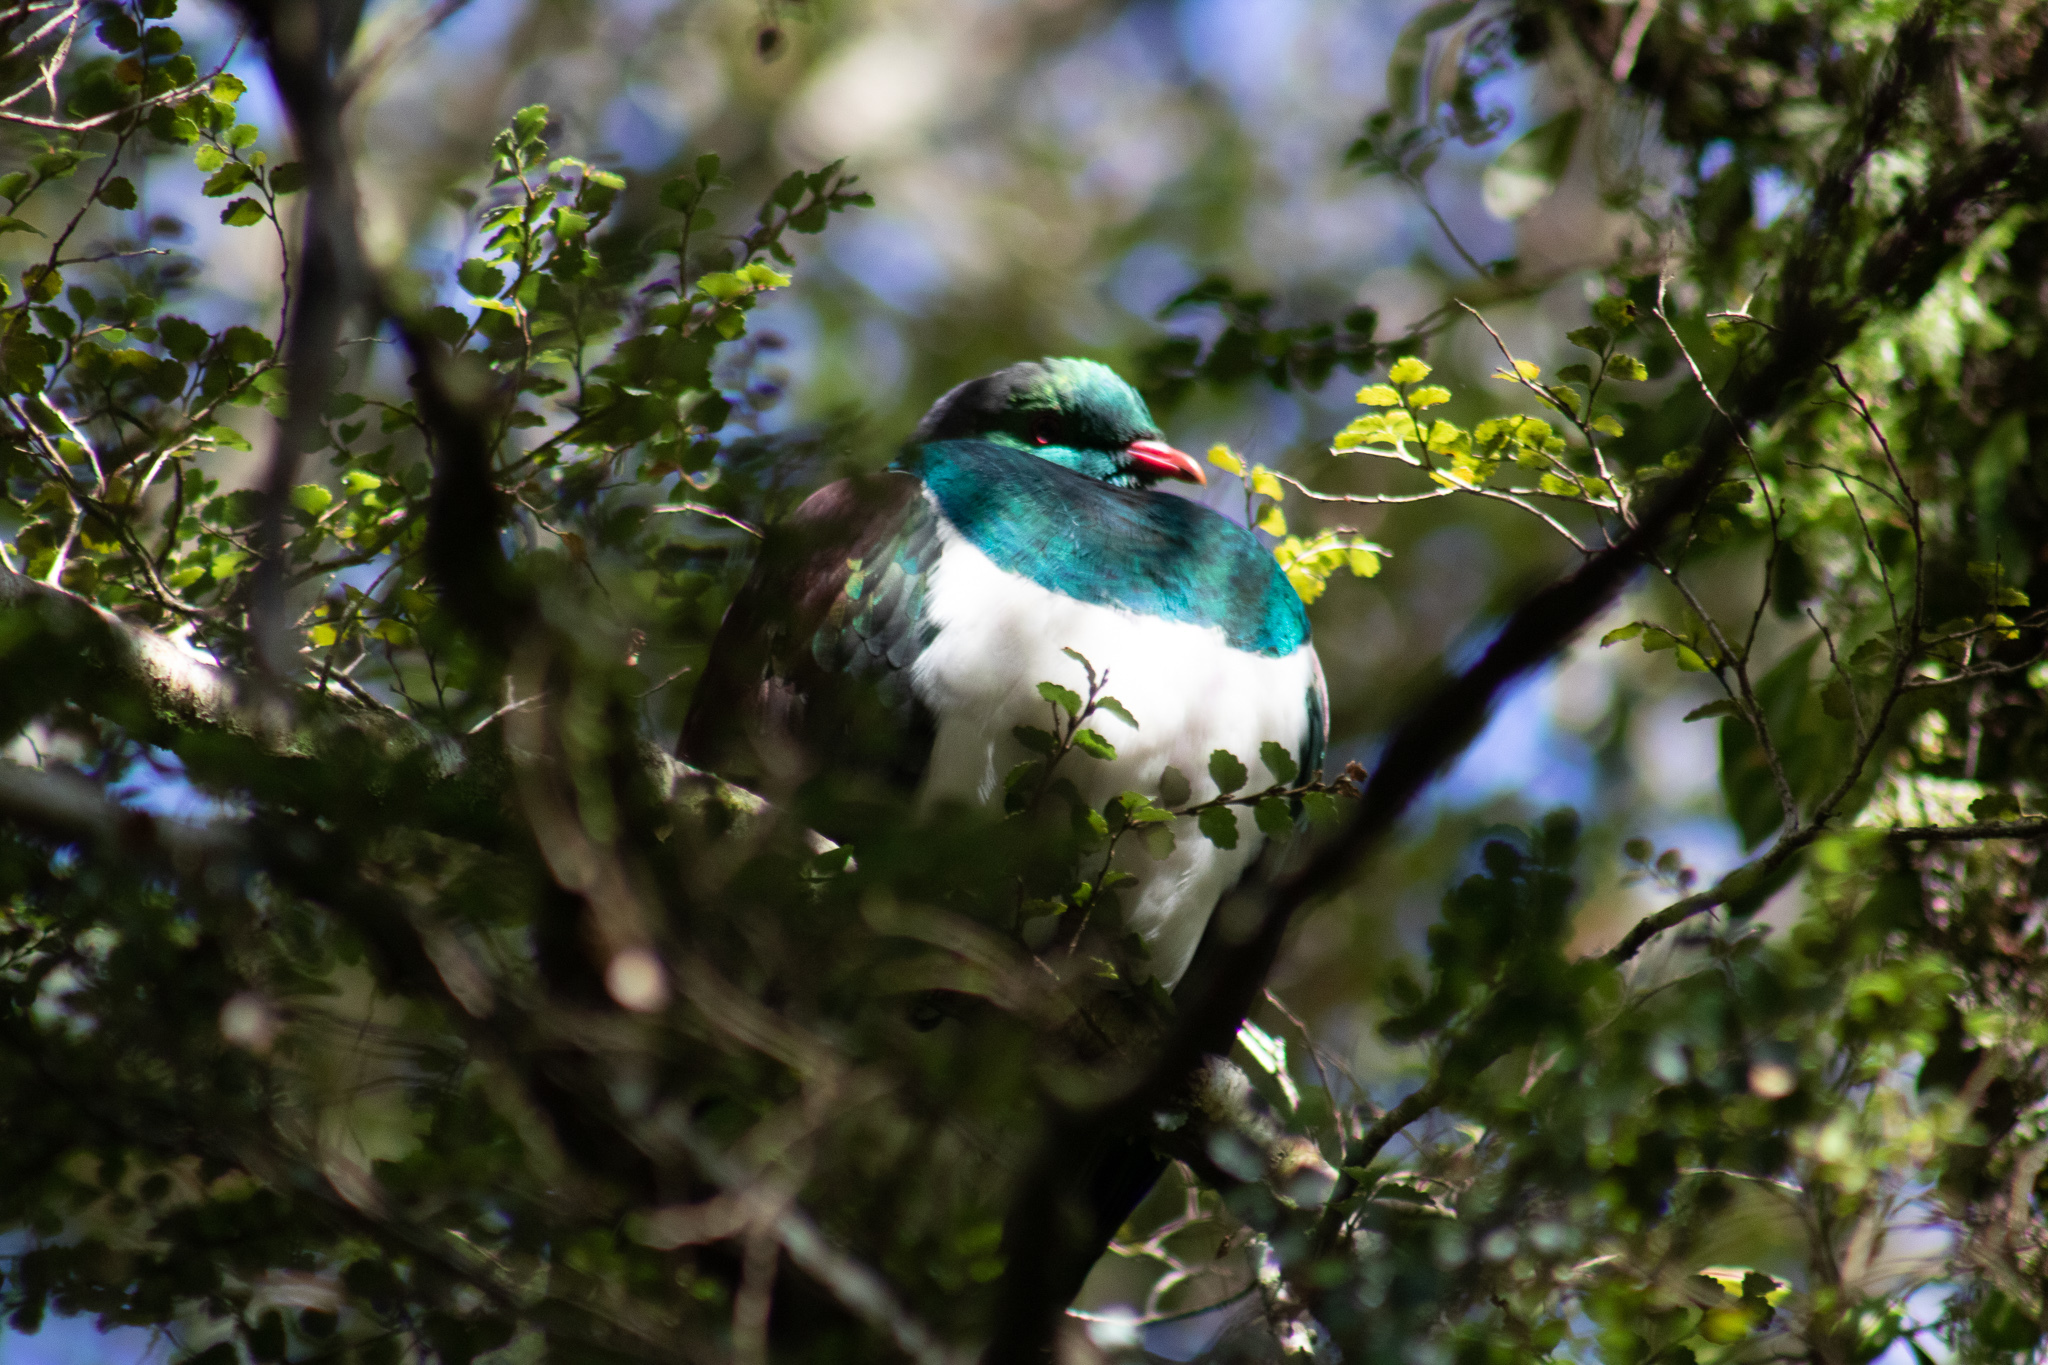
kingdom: Animalia
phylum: Chordata
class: Aves
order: Columbiformes
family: Columbidae
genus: Hemiphaga
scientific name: Hemiphaga novaeseelandiae
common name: New zealand pigeon
